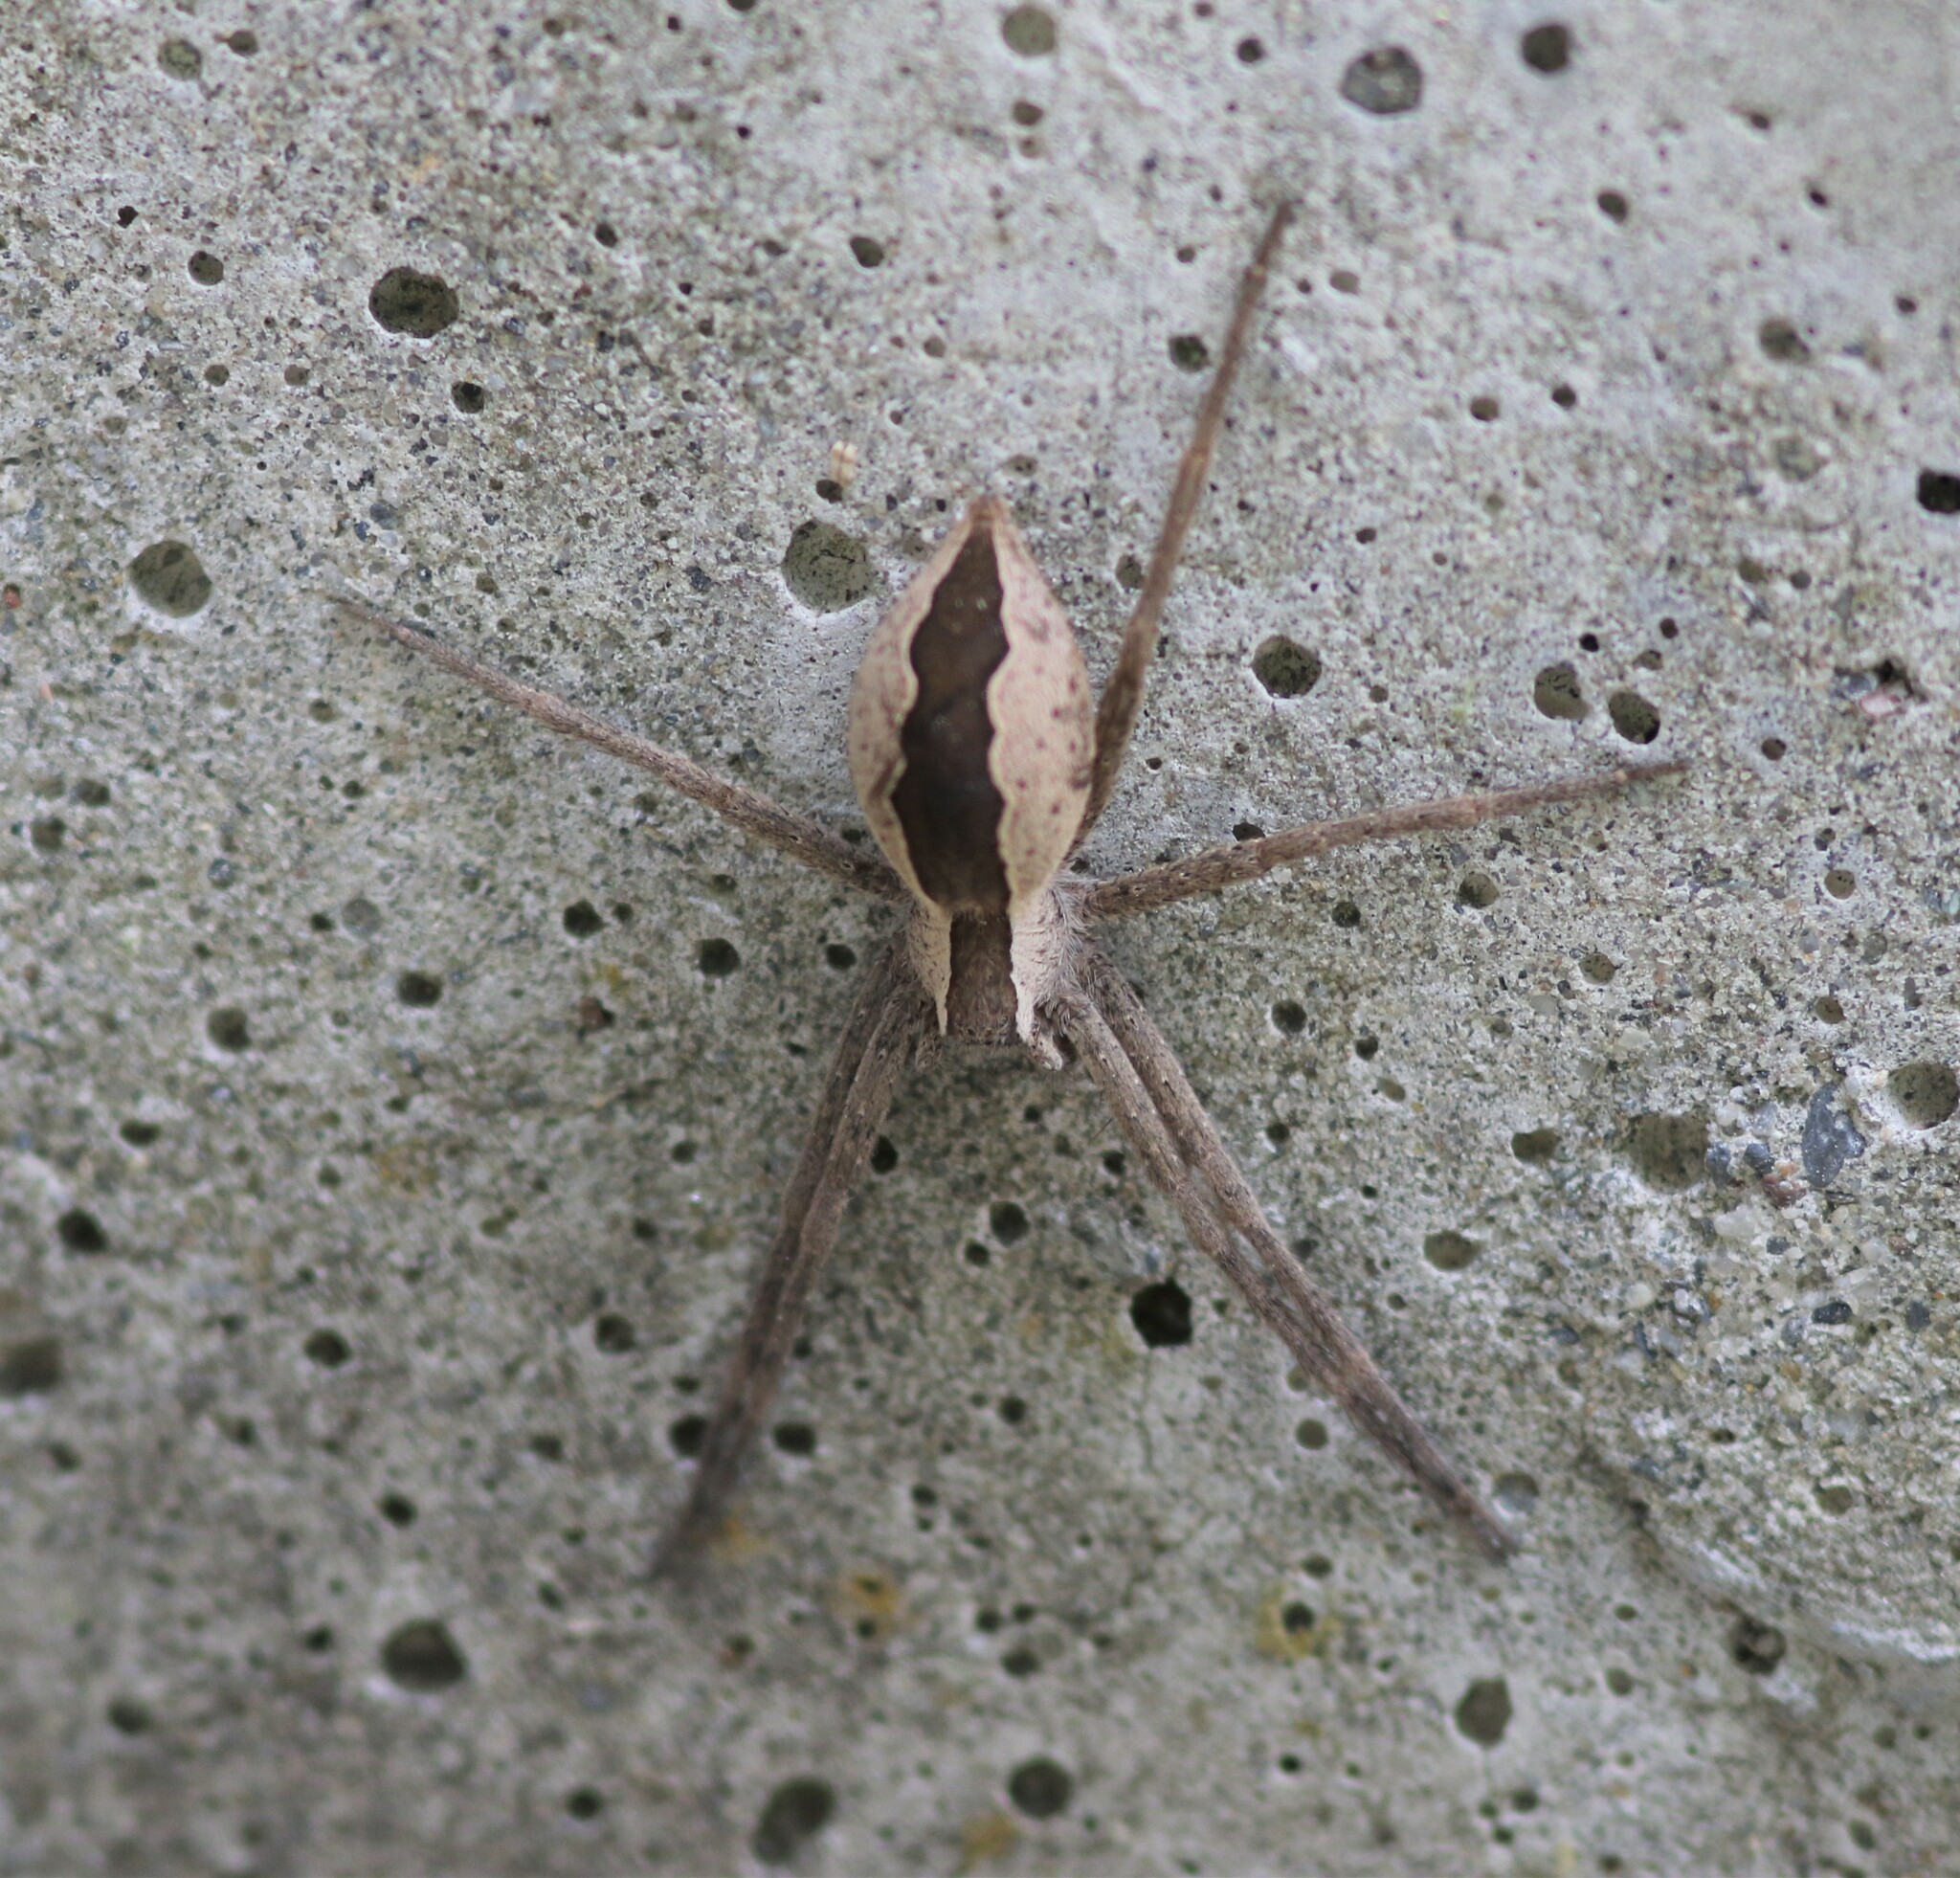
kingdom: Animalia
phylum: Arthropoda
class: Arachnida
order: Araneae
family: Pisauridae
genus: Pisaurina
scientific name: Pisaurina mira
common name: American nursery web spider
